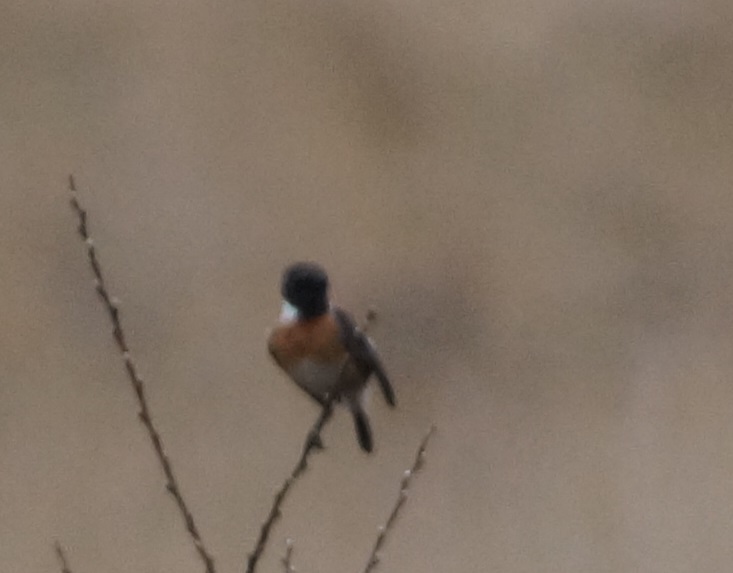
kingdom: Animalia
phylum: Chordata
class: Aves
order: Passeriformes
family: Muscicapidae
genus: Saxicola
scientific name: Saxicola rubicola
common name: European stonechat
